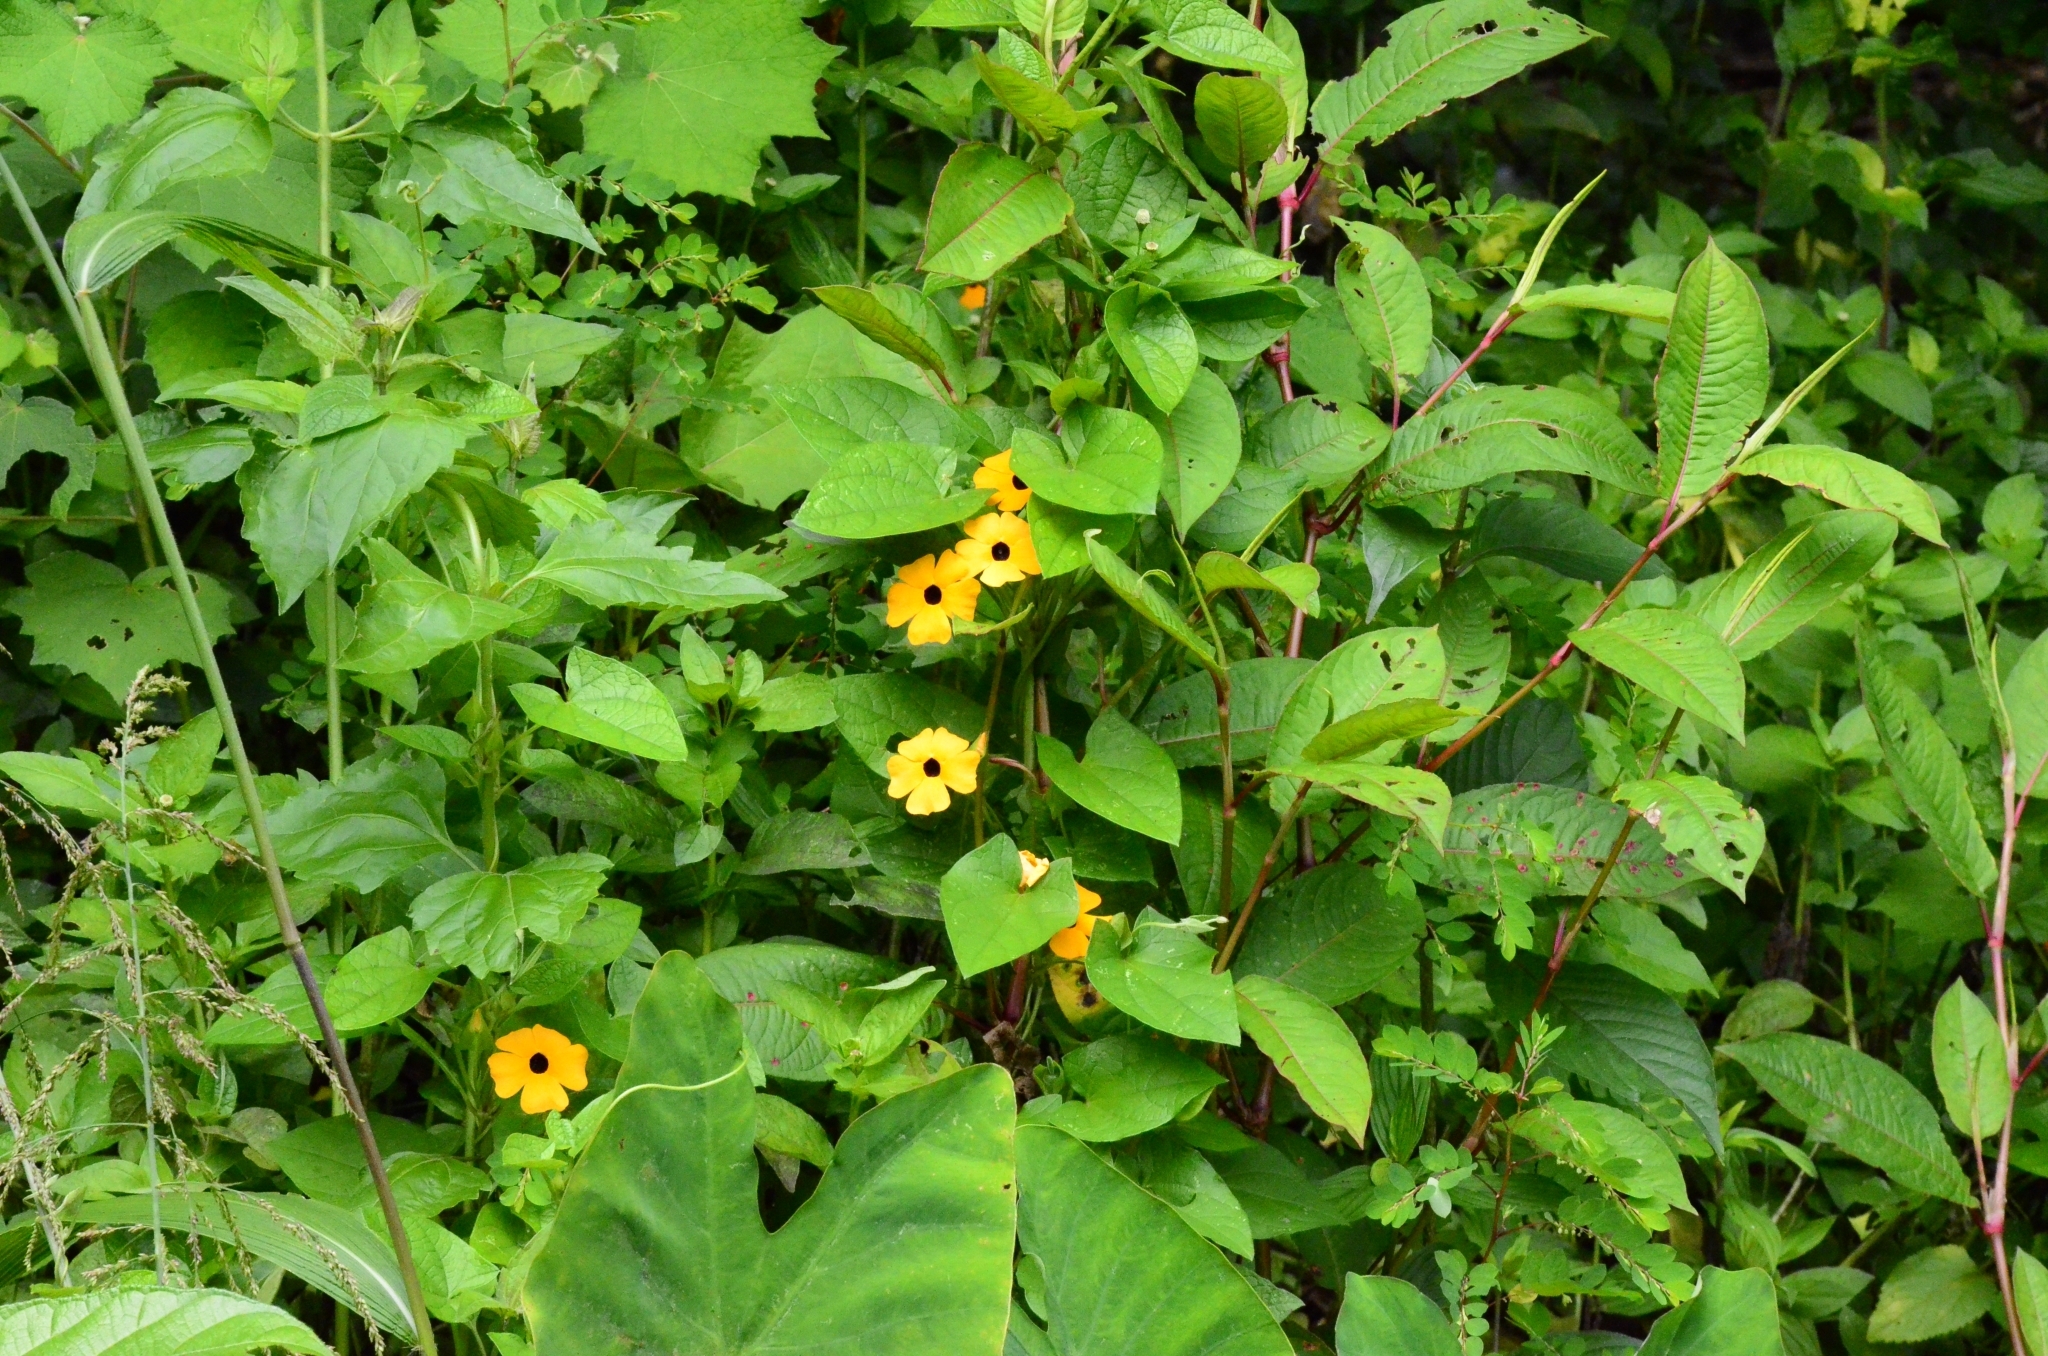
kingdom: Plantae
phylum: Tracheophyta
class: Magnoliopsida
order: Lamiales
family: Acanthaceae
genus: Thunbergia
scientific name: Thunbergia alata
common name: Blackeyed susan vine
